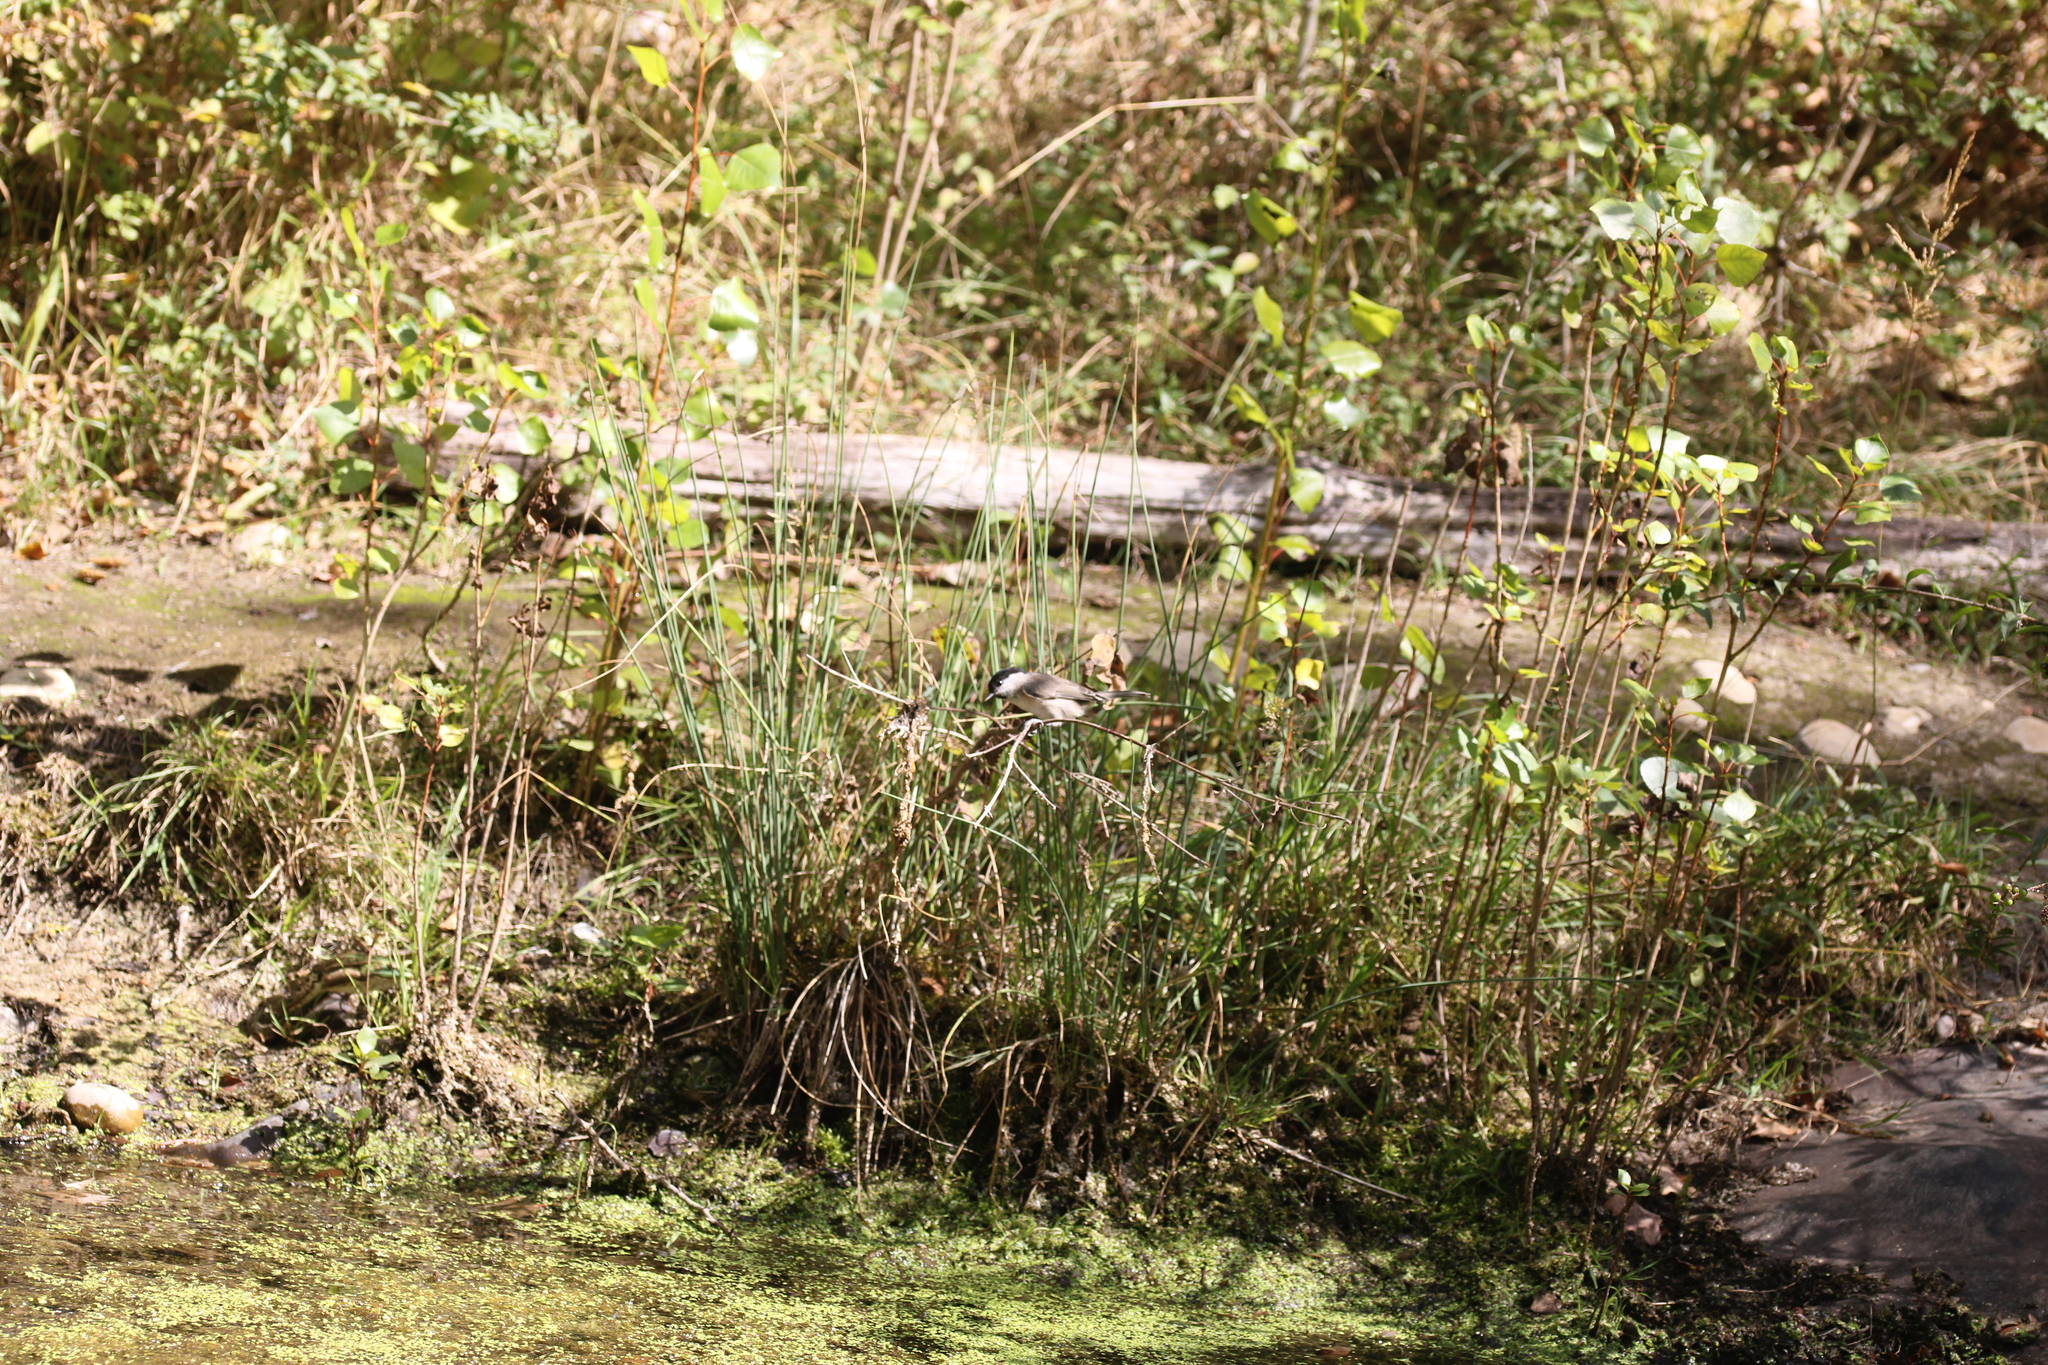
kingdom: Animalia
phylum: Chordata
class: Aves
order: Passeriformes
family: Paridae
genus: Poecile
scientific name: Poecile palustris
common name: Marsh tit
